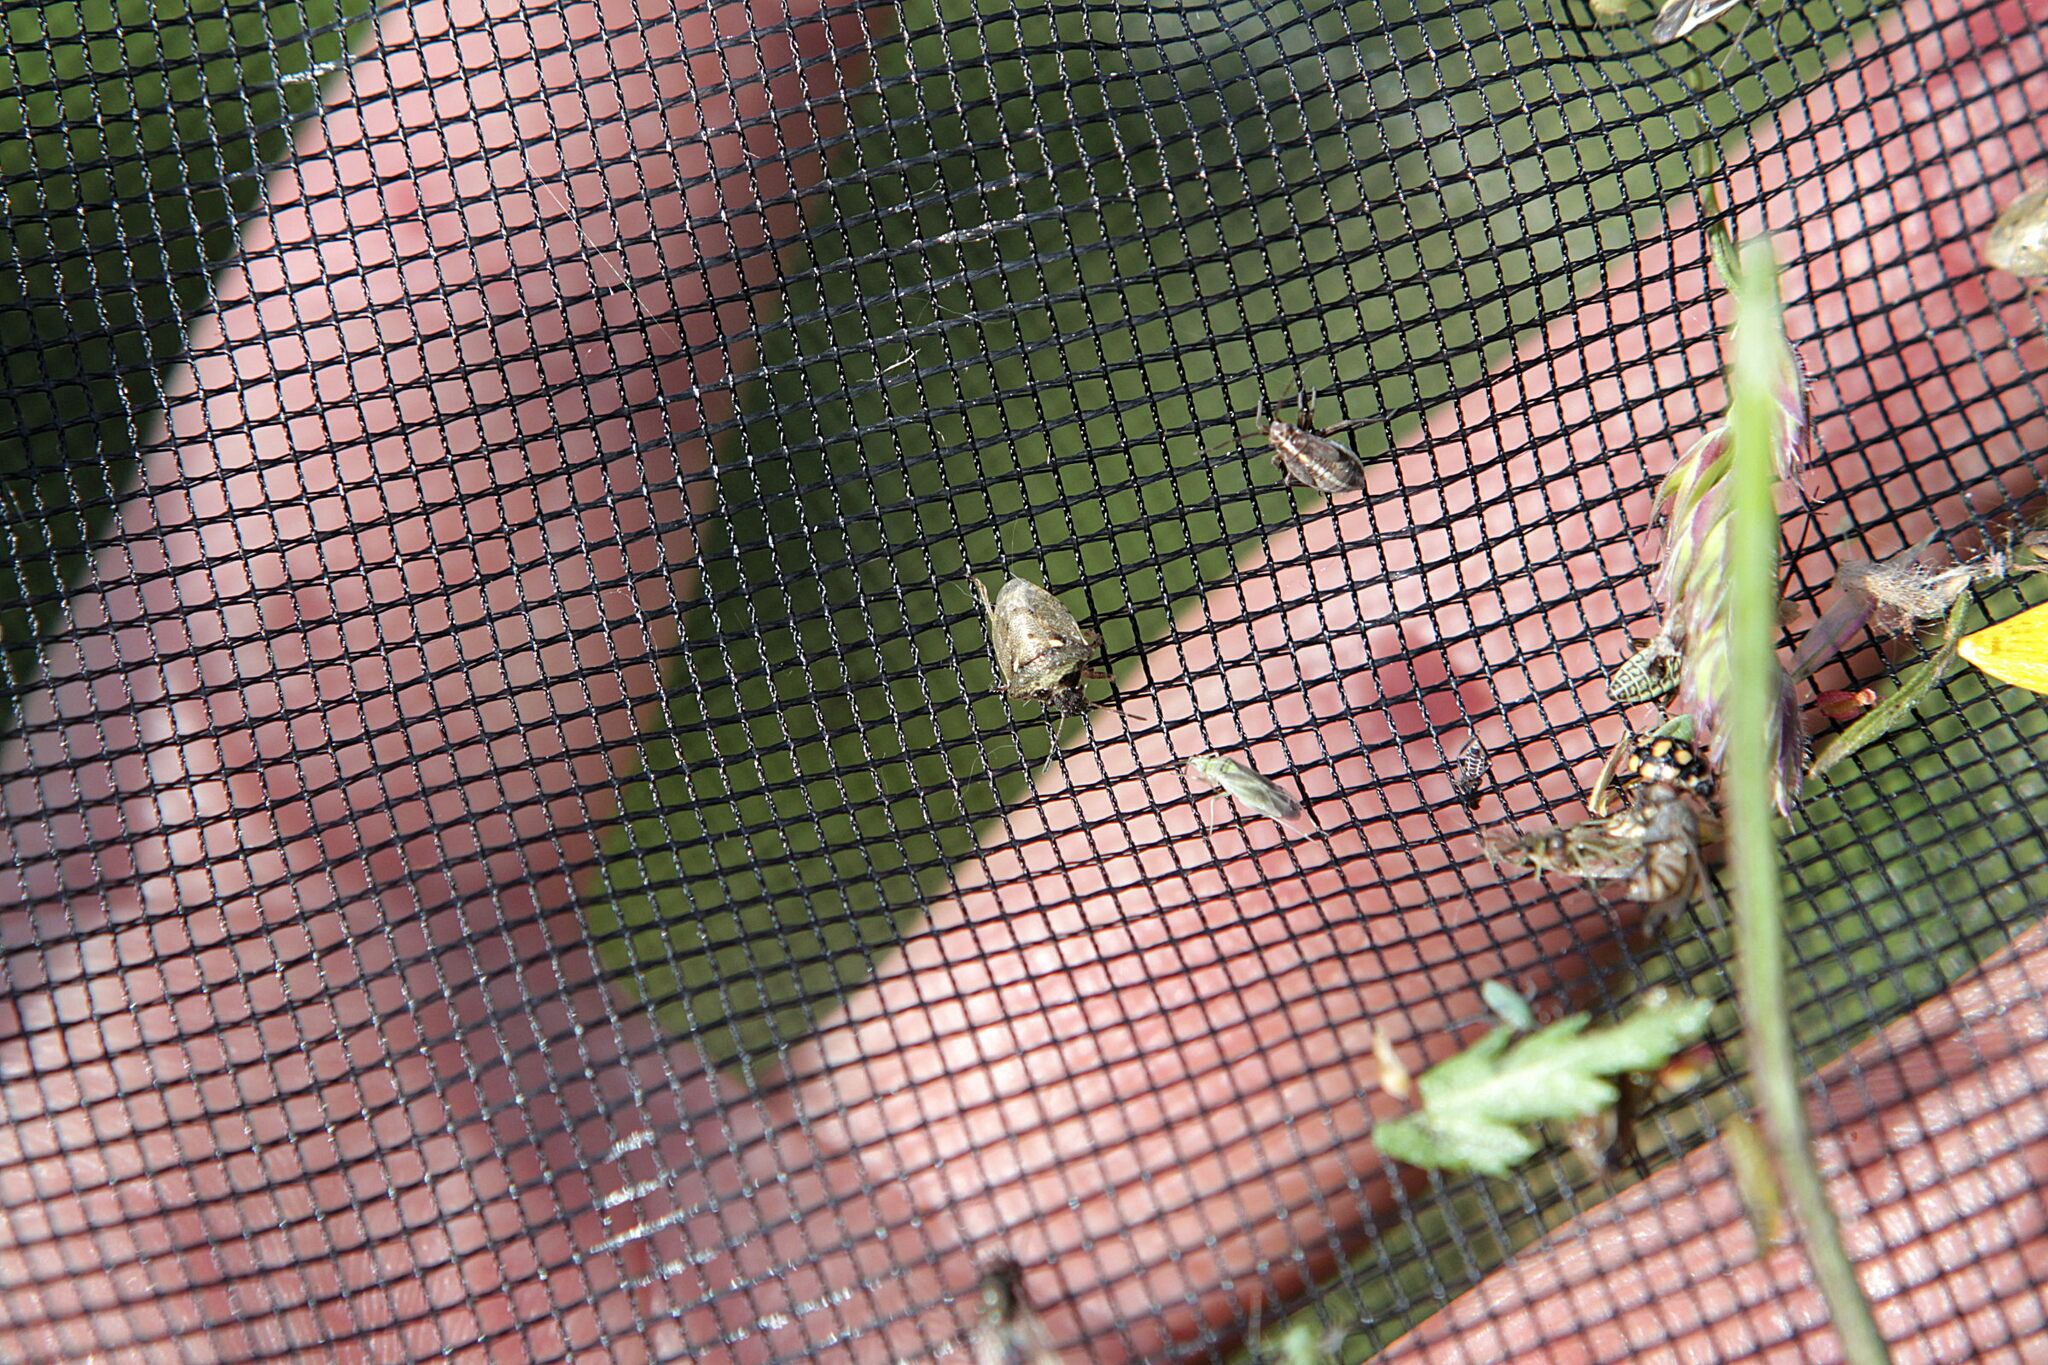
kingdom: Animalia
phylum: Arthropoda
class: Insecta
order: Hemiptera
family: Pentatomidae
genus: Eysarcoris
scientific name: Eysarcoris aeneus
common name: New forest shieldbug
